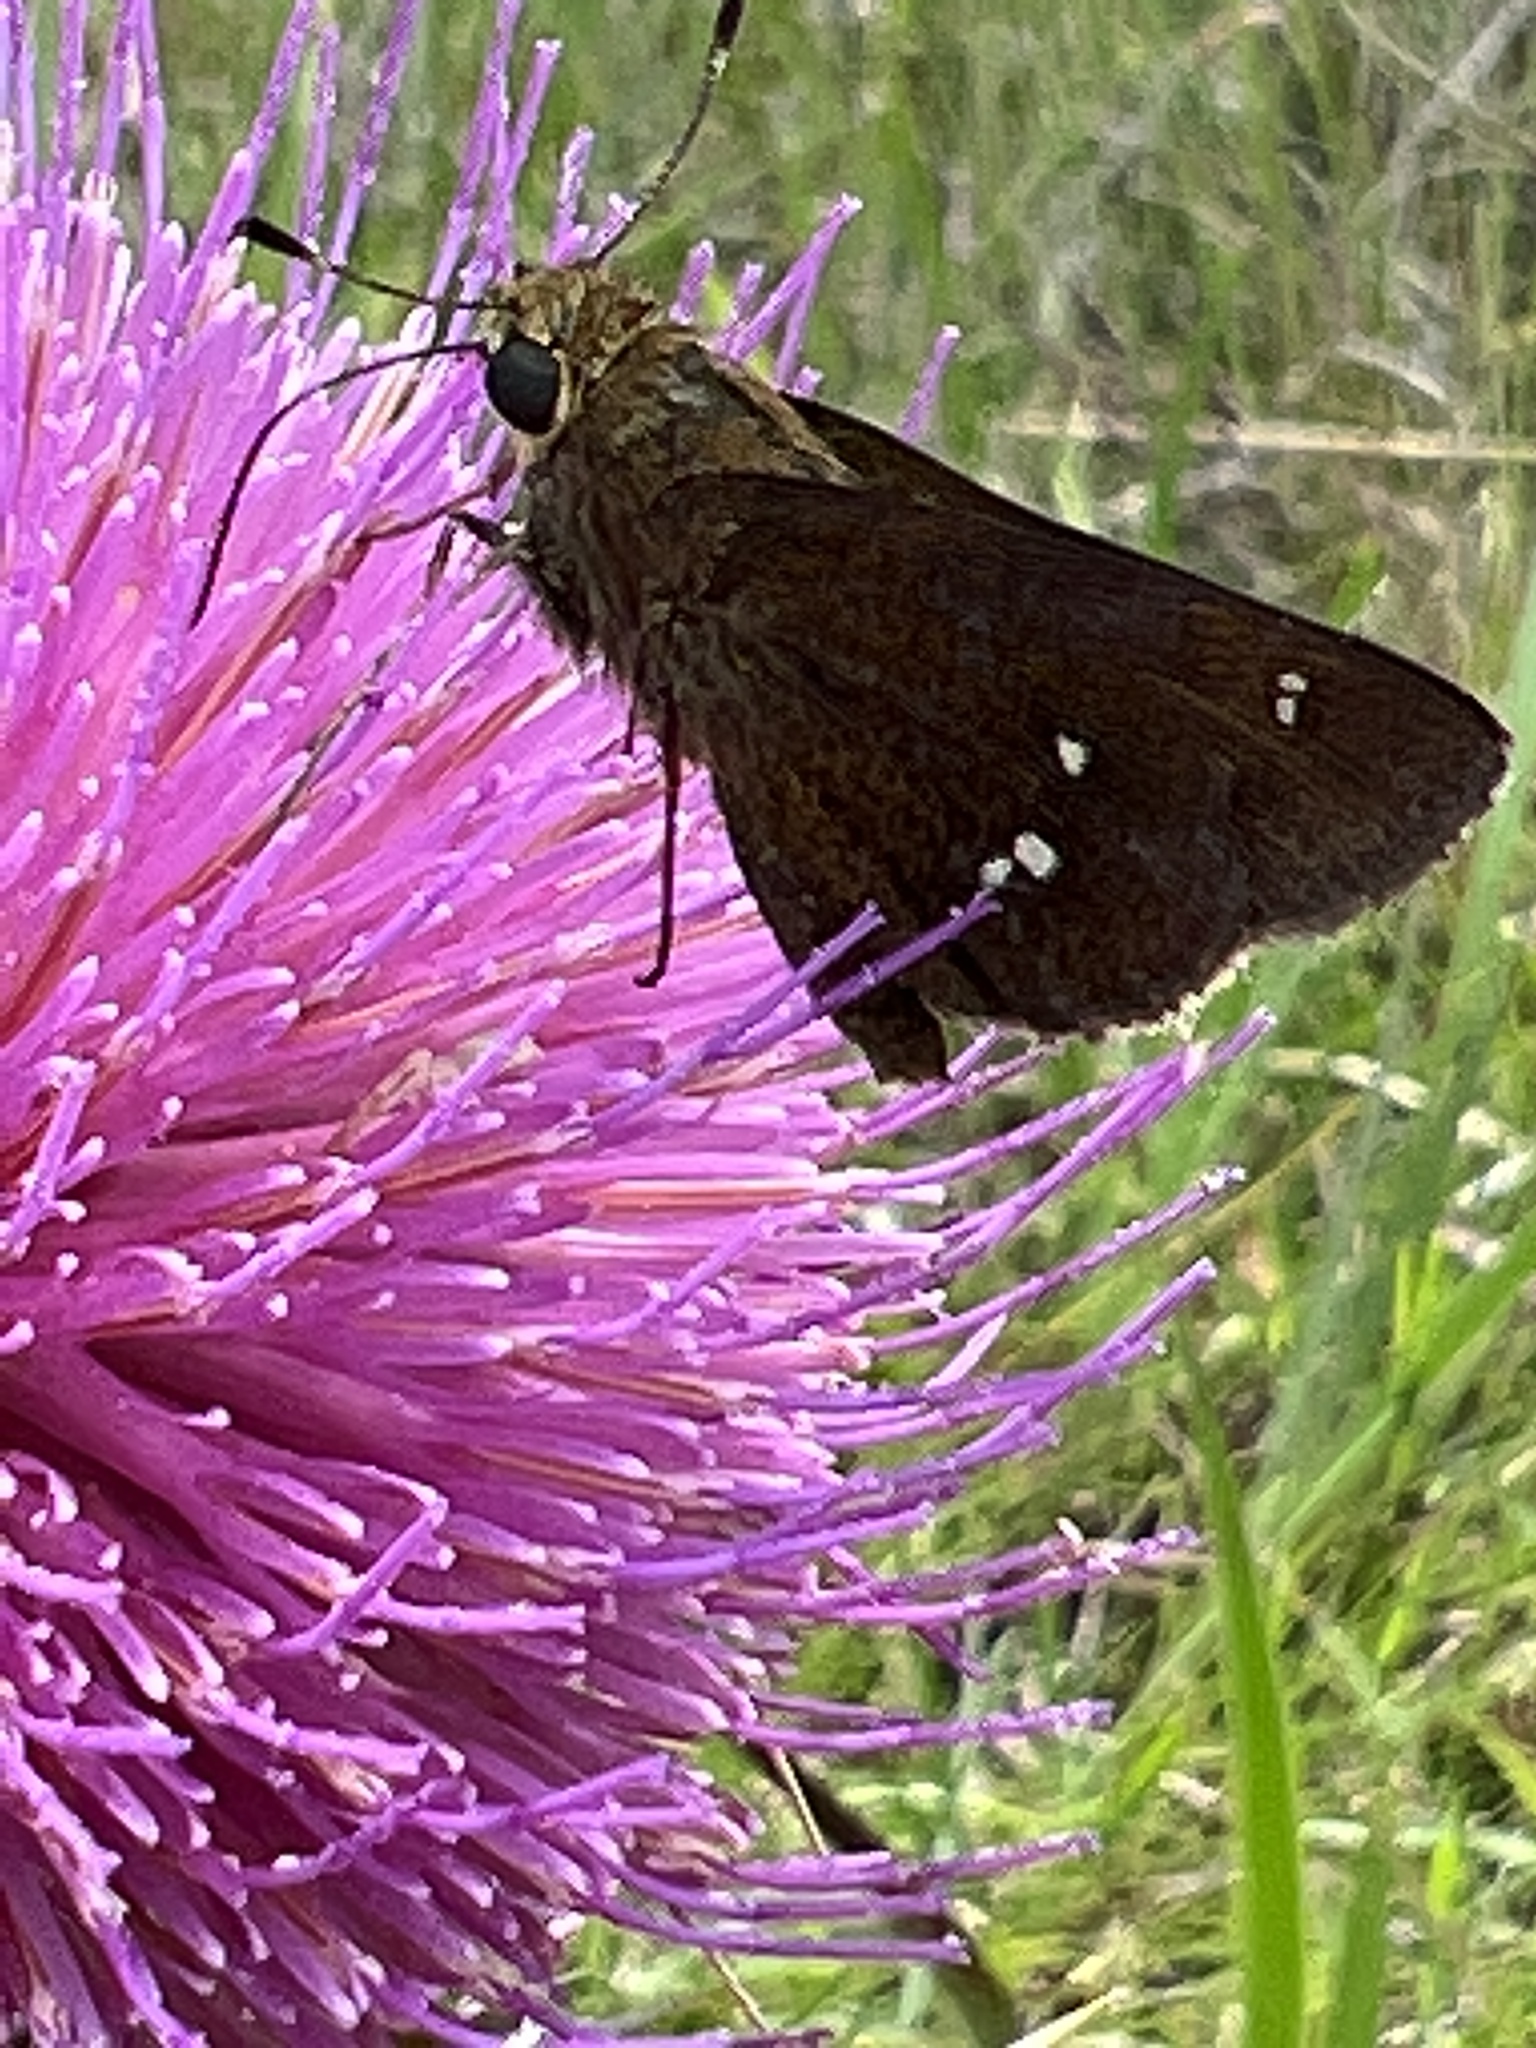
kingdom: Animalia
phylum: Arthropoda
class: Insecta
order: Lepidoptera
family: Hesperiidae
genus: Oligoria
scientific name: Oligoria maculata
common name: Twin-spot skipper
